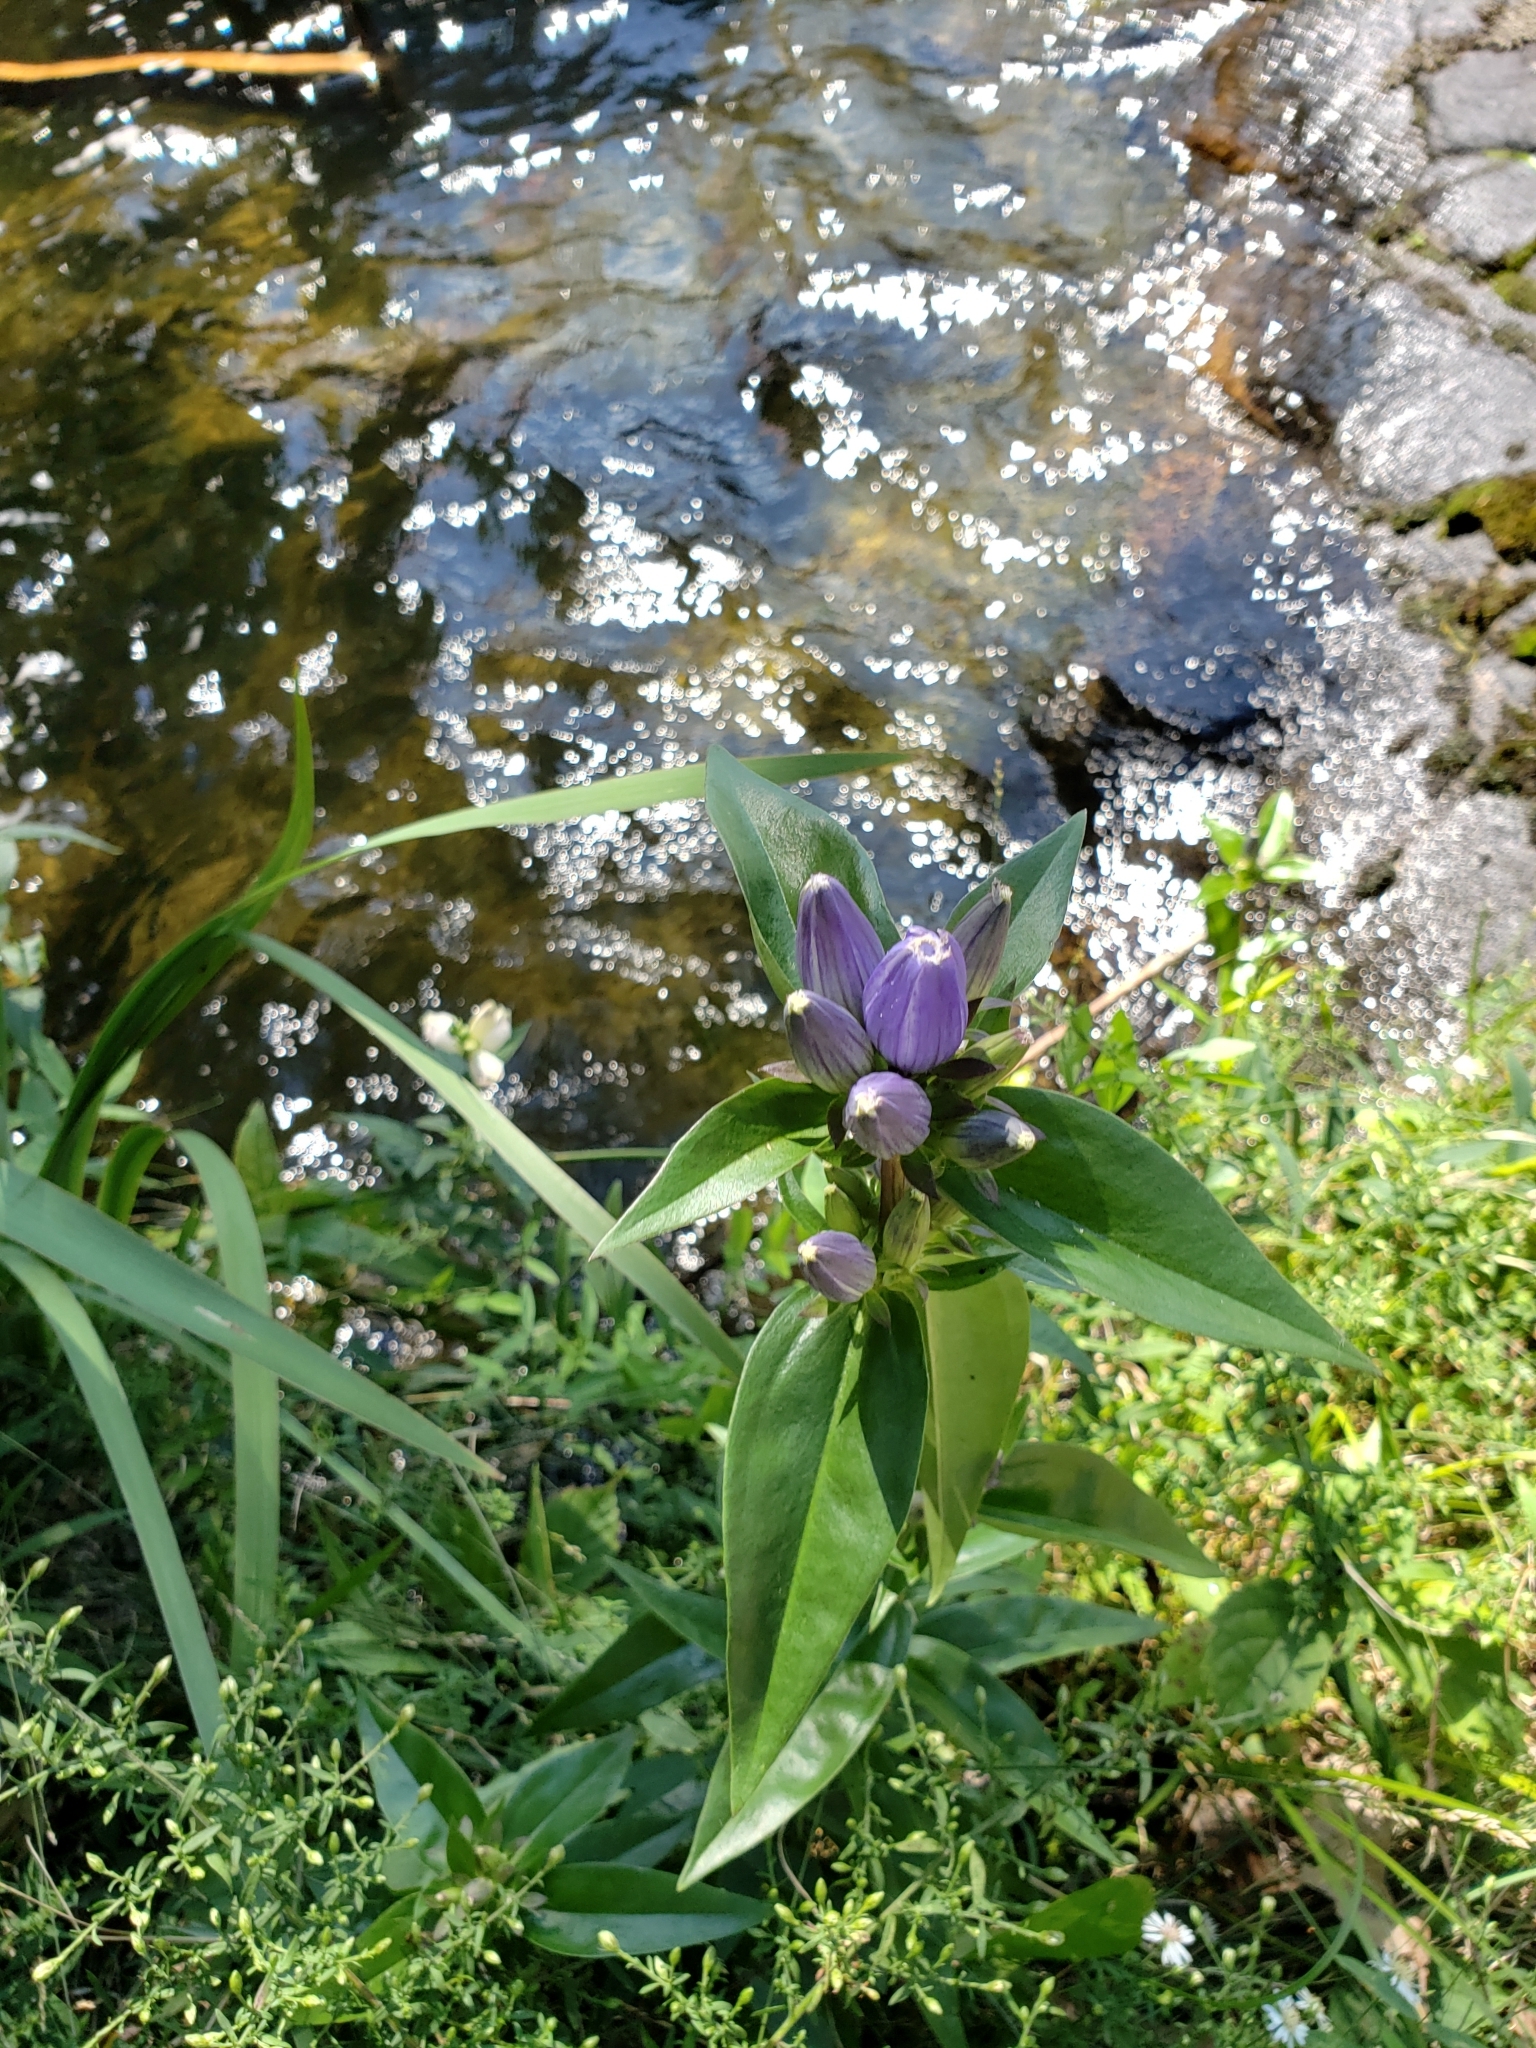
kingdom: Plantae
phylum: Tracheophyta
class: Magnoliopsida
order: Gentianales
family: Gentianaceae
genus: Gentiana
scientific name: Gentiana andrewsii
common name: Bottle gentian
